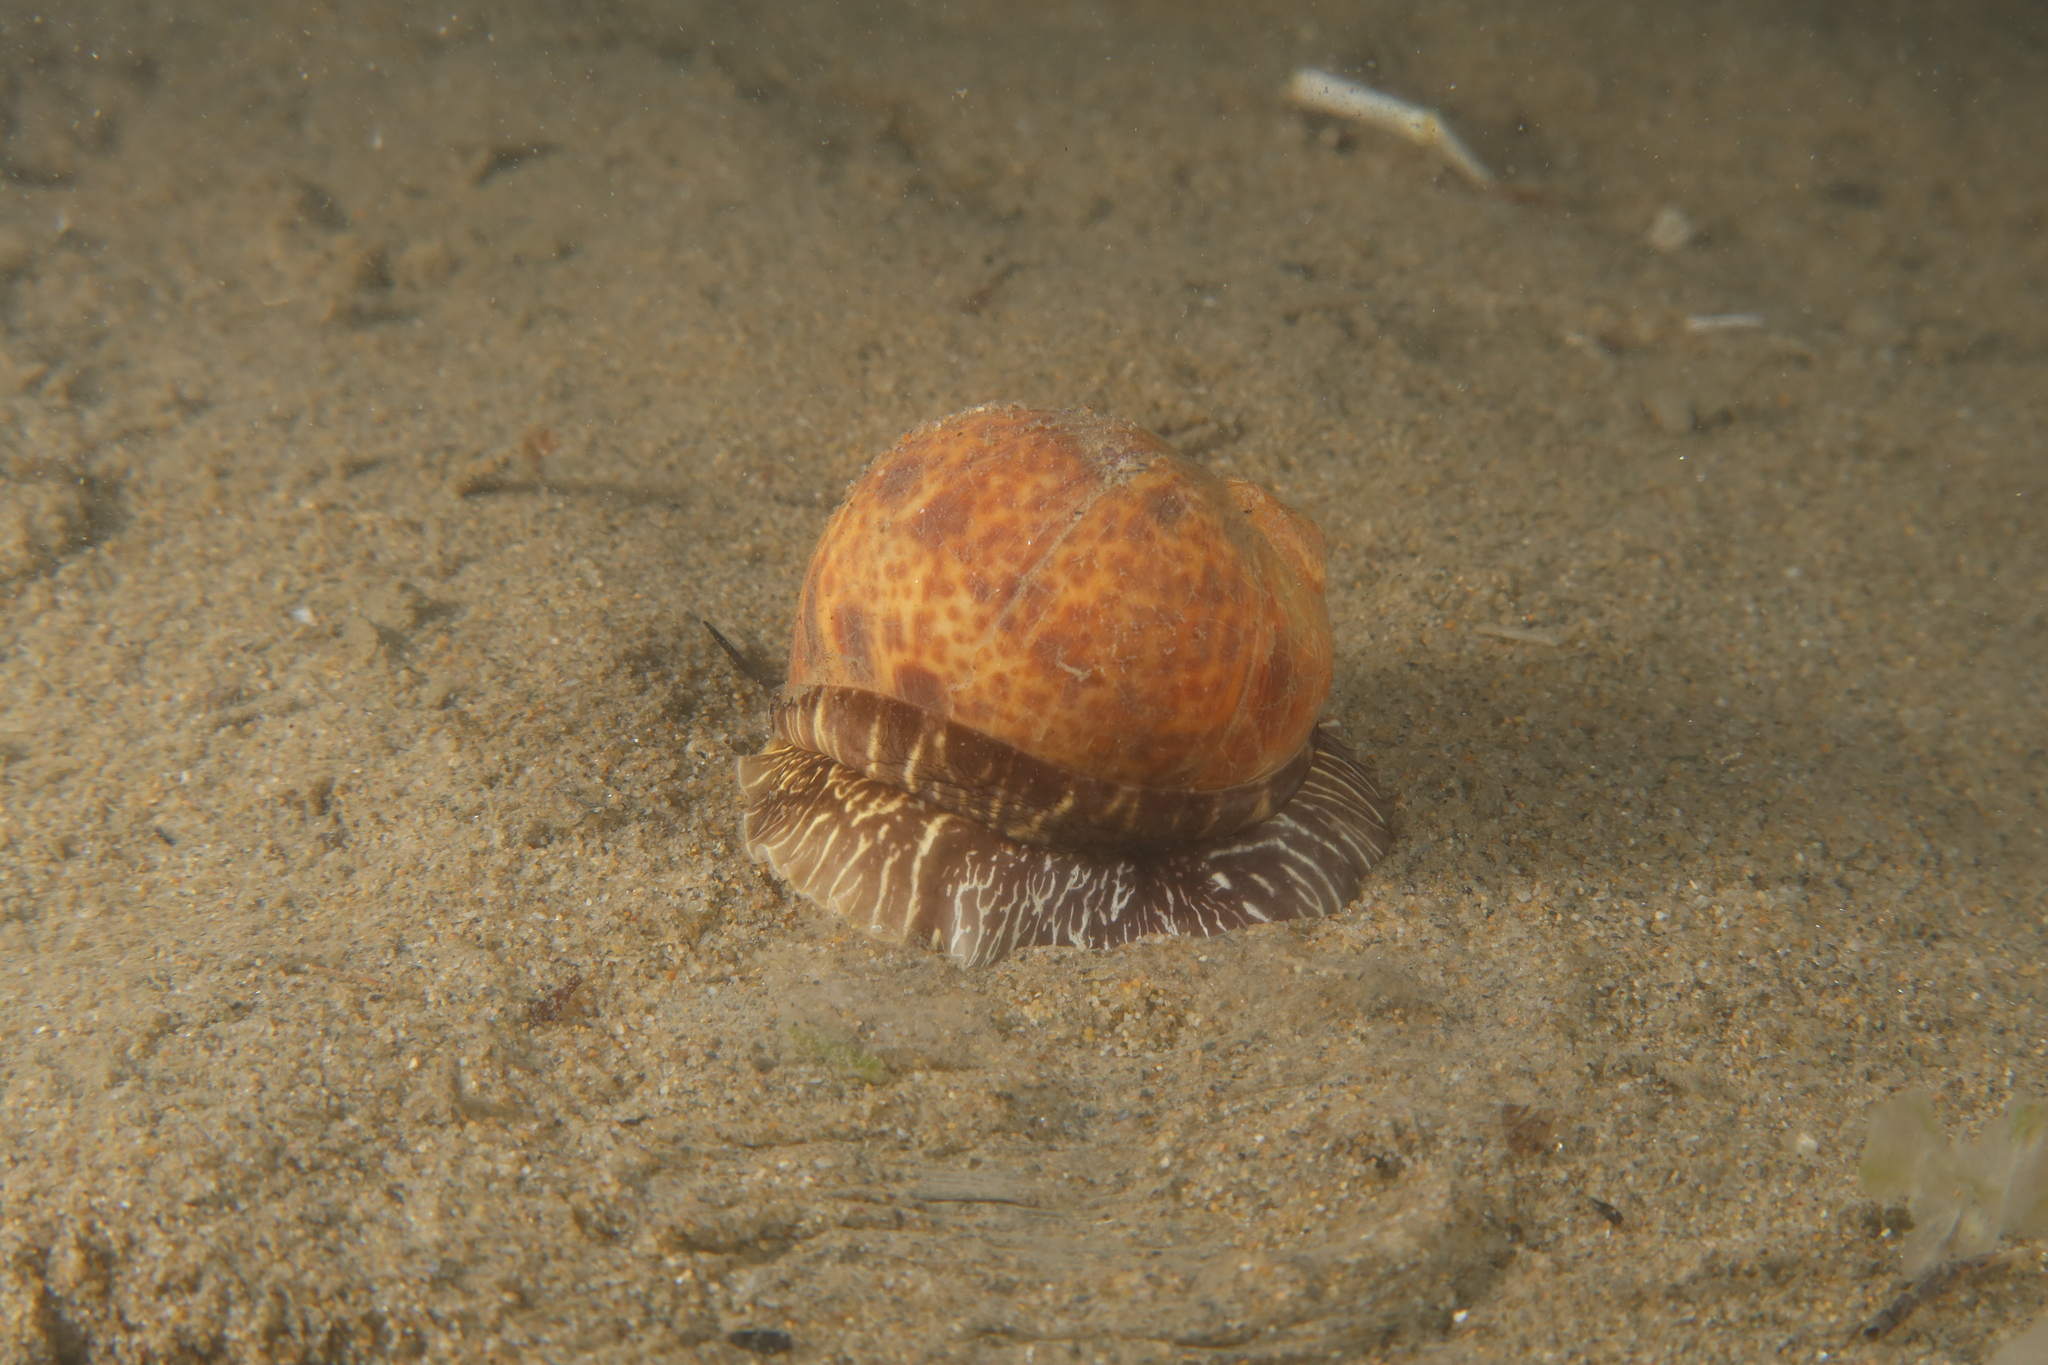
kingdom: Animalia
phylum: Mollusca
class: Gastropoda
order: Littorinimorpha
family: Naticidae
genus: Naticarius
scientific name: Naticarius hebraeus
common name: Hebrew moon shell
